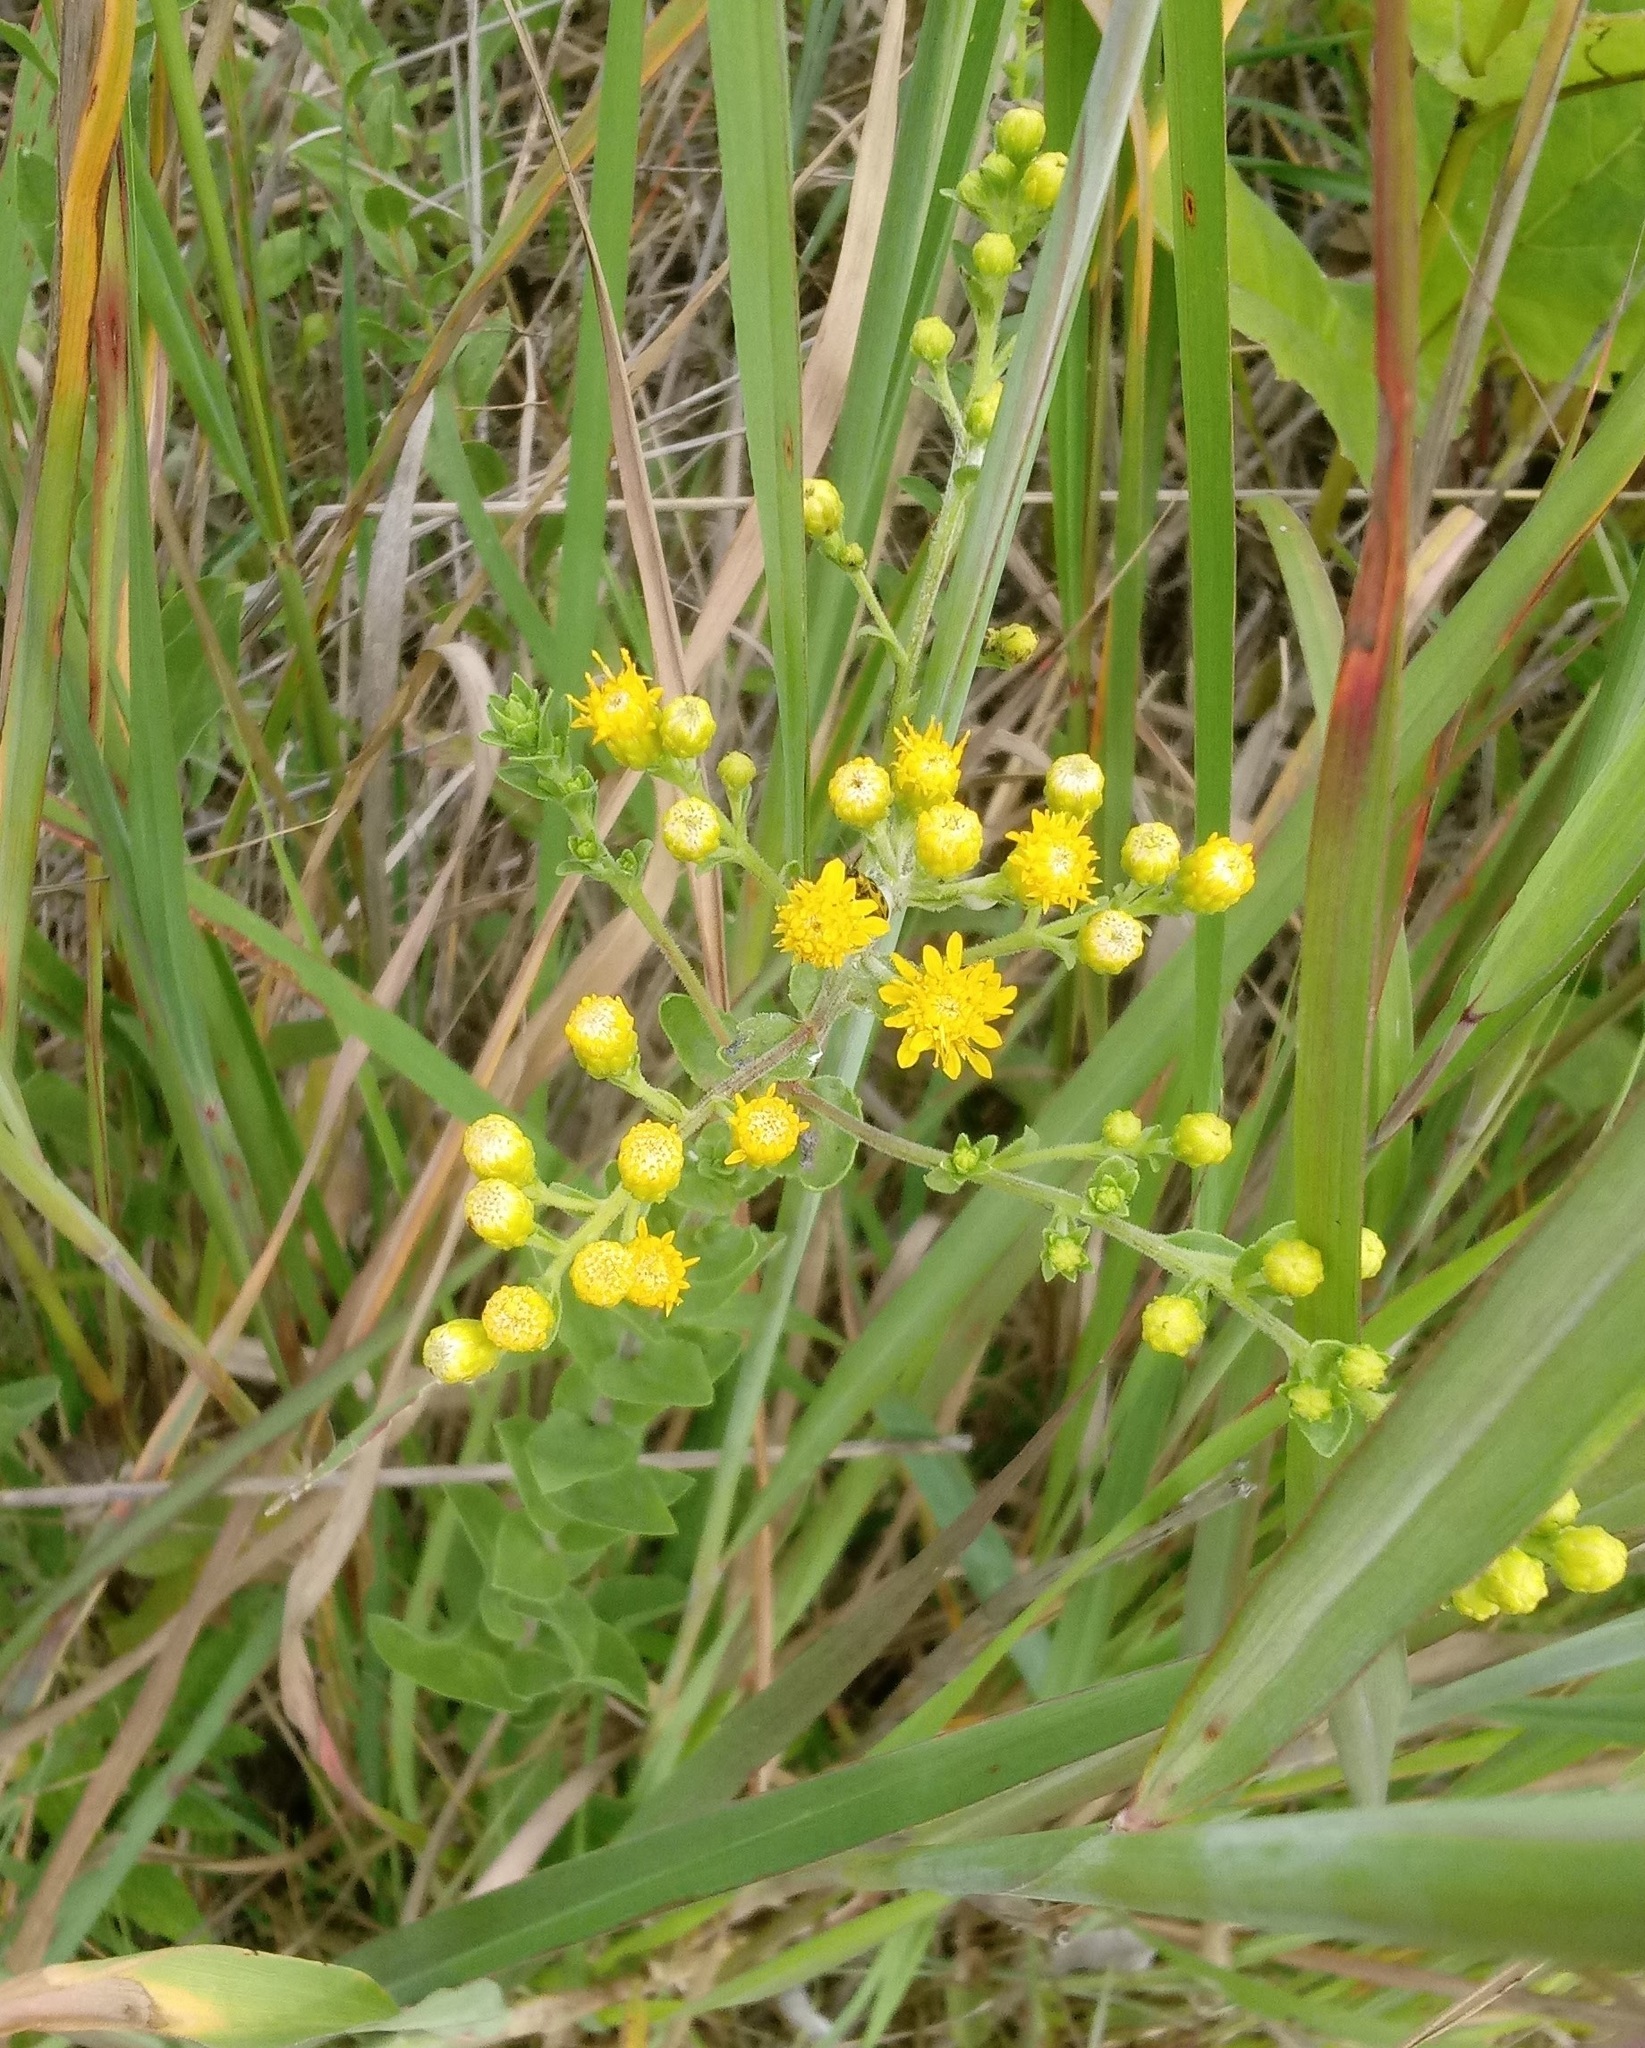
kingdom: Animalia
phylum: Arthropoda
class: Insecta
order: Coleoptera
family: Chrysomelidae
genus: Diabrotica
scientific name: Diabrotica undecimpunctata
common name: Spotted cucumber beetle
